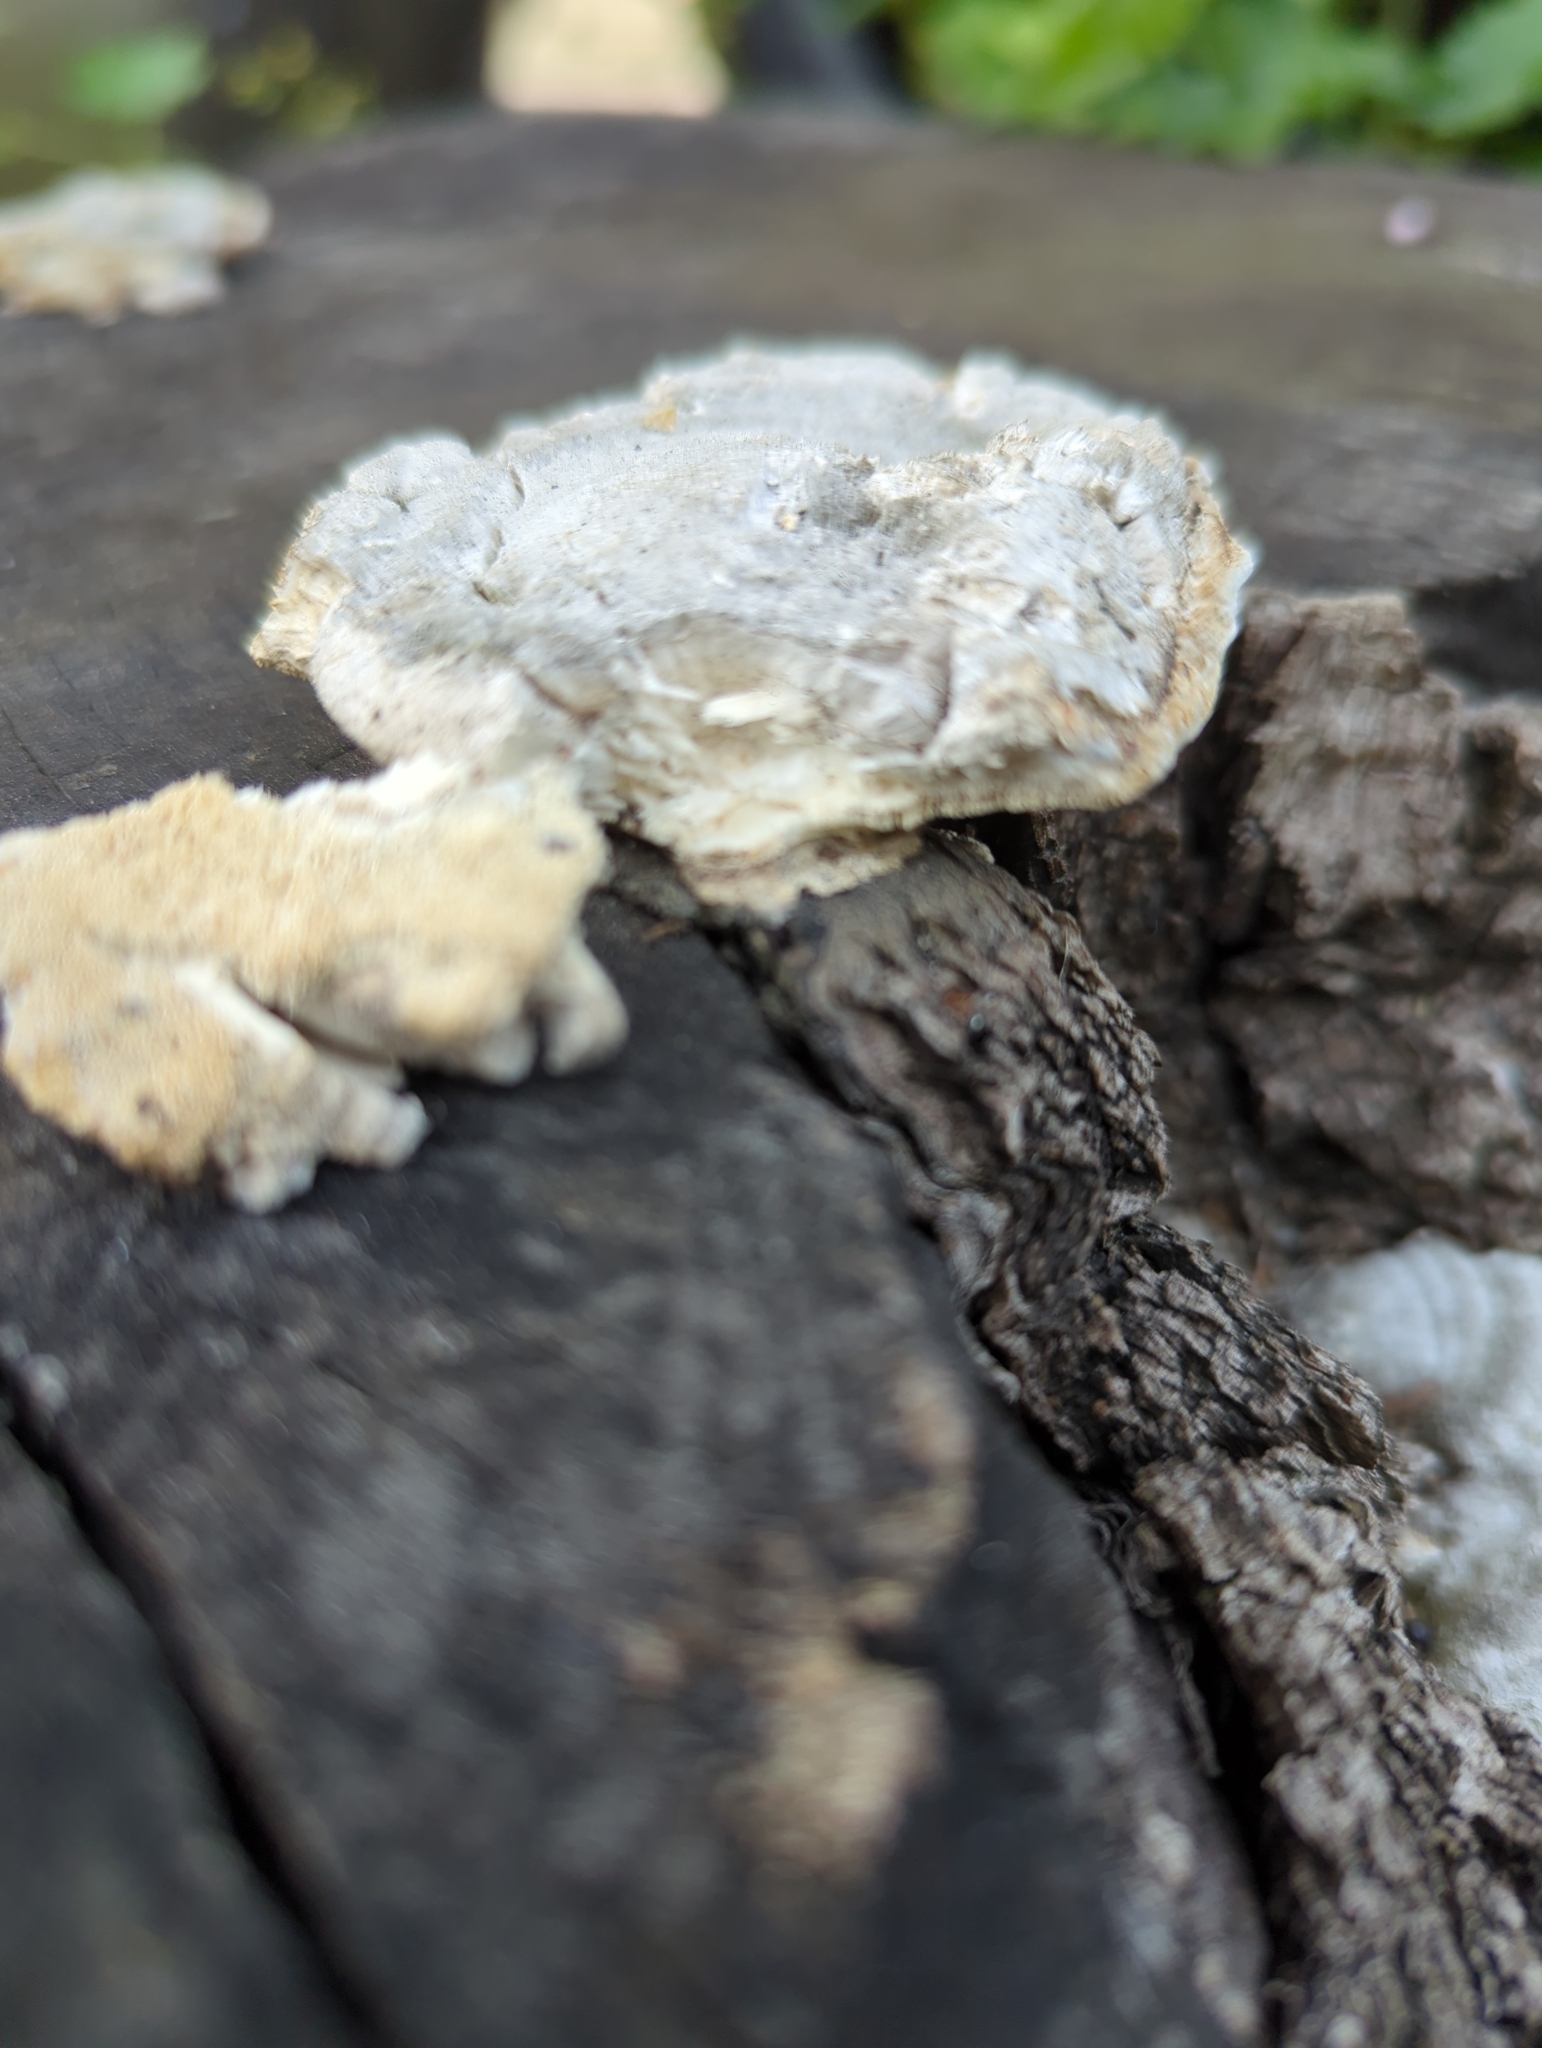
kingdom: Fungi
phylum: Basidiomycota
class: Agaricomycetes
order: Polyporales
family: Polyporaceae
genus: Trametes
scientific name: Trametes hirsuta
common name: Hairy bracket
